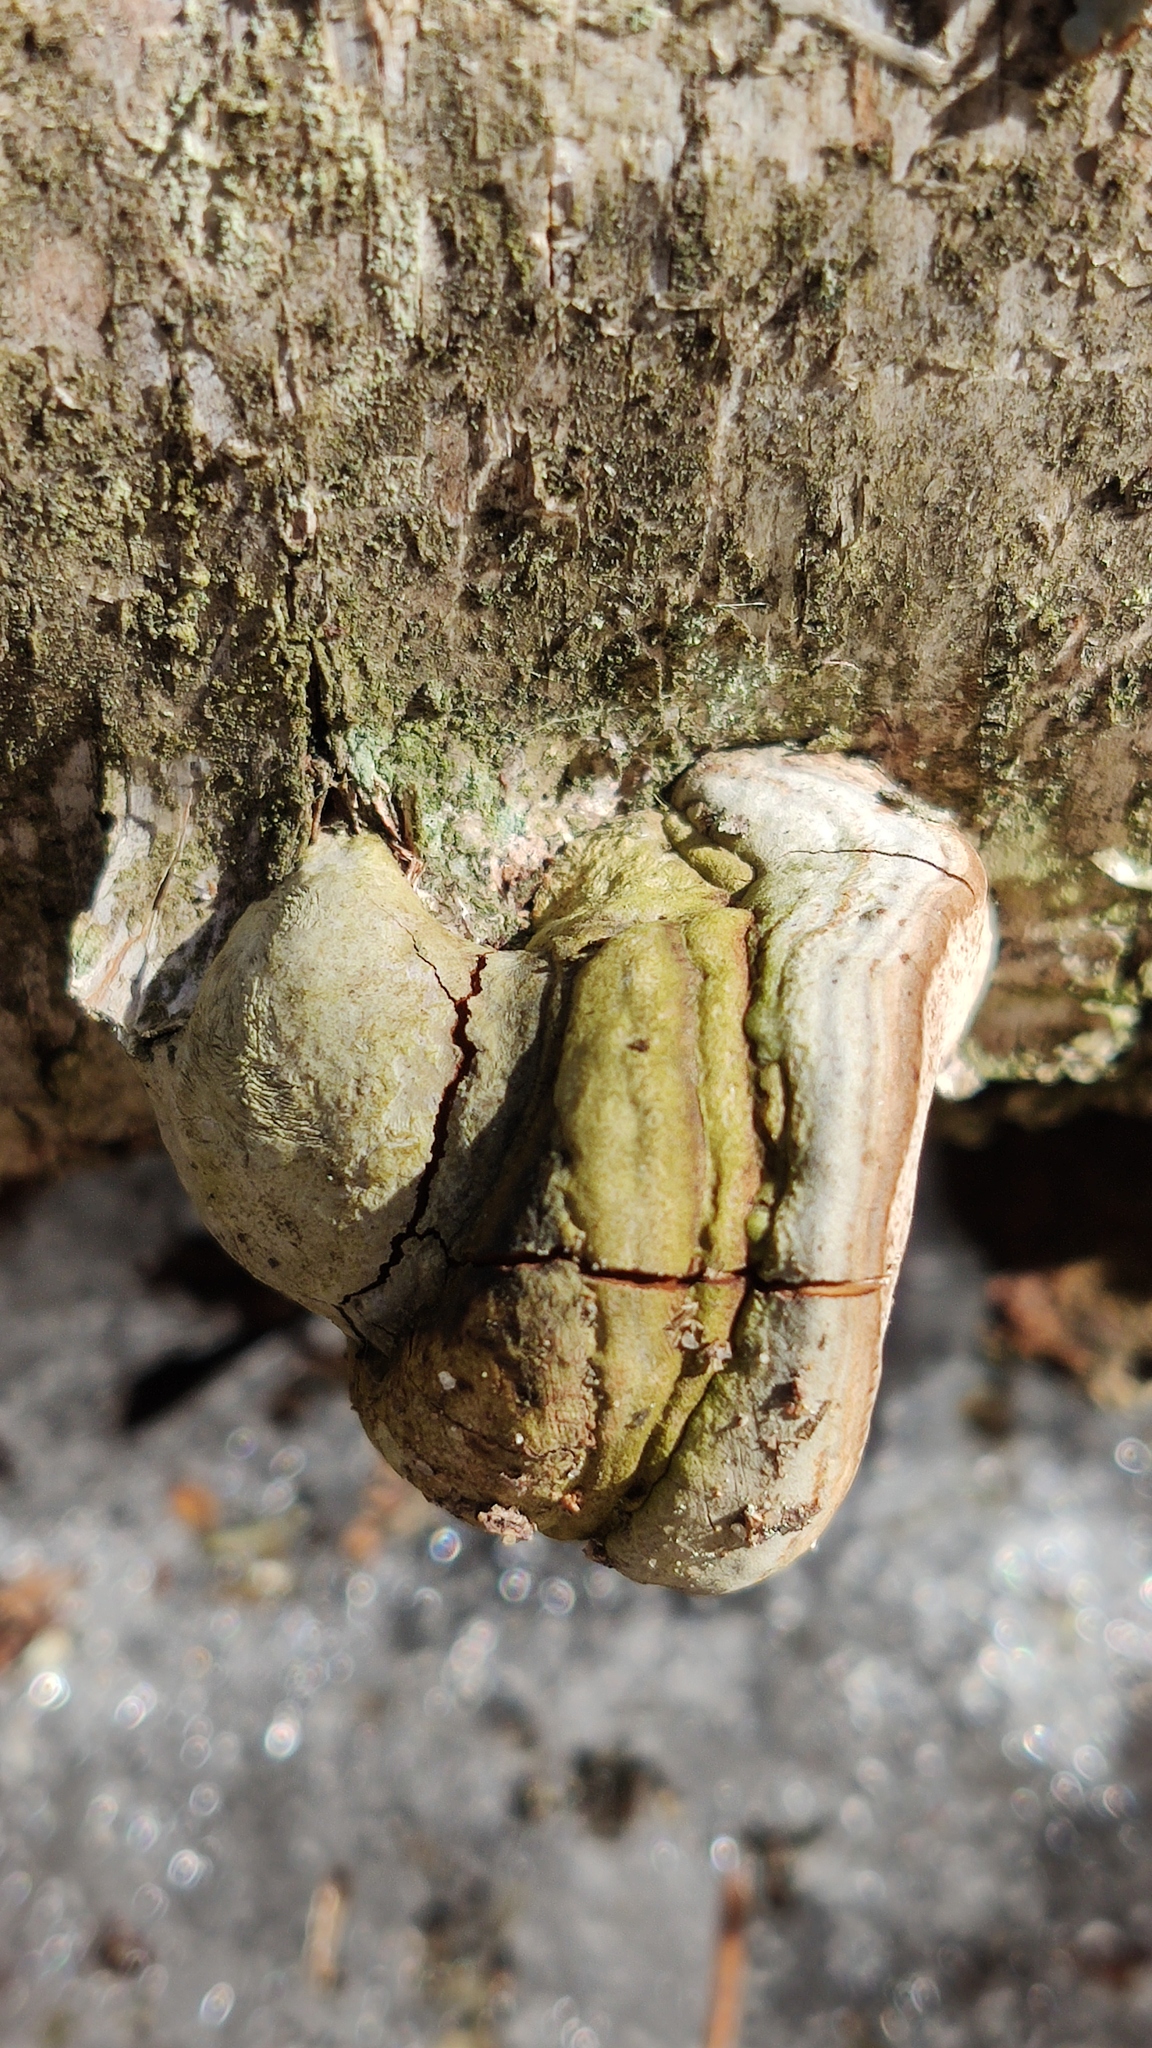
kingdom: Fungi
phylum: Basidiomycota
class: Agaricomycetes
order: Polyporales
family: Polyporaceae
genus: Fomes
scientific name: Fomes fomentarius
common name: Hoof fungus
